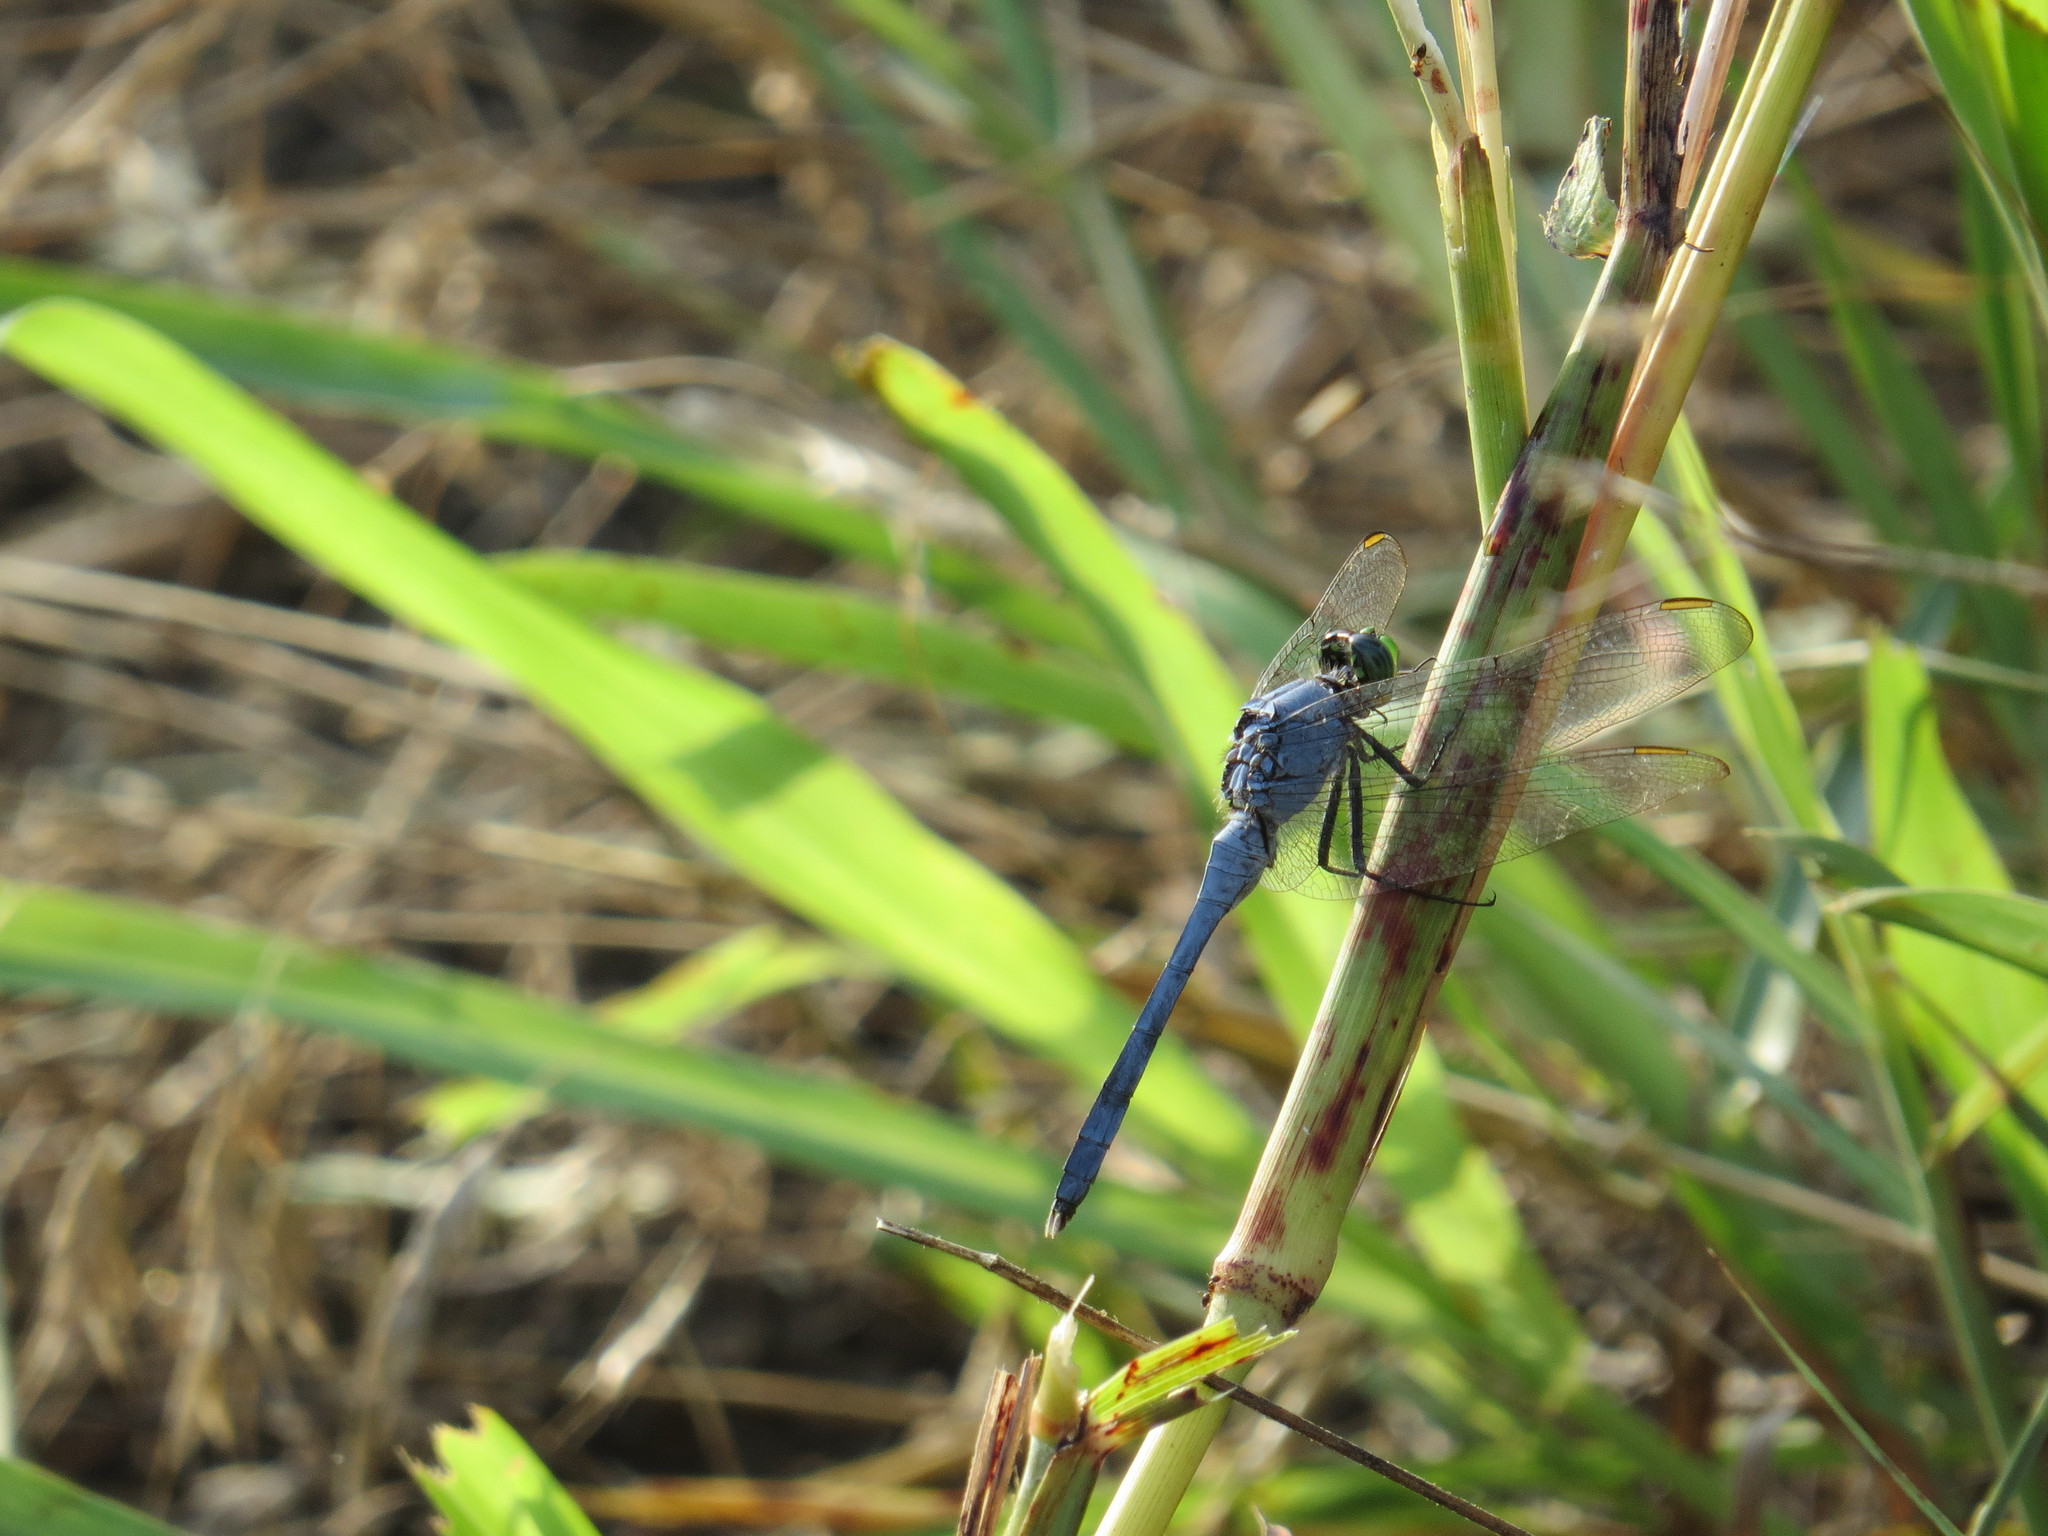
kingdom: Animalia
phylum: Arthropoda
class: Insecta
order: Odonata
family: Libellulidae
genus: Erythemis
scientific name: Erythemis simplicicollis
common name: Eastern pondhawk
